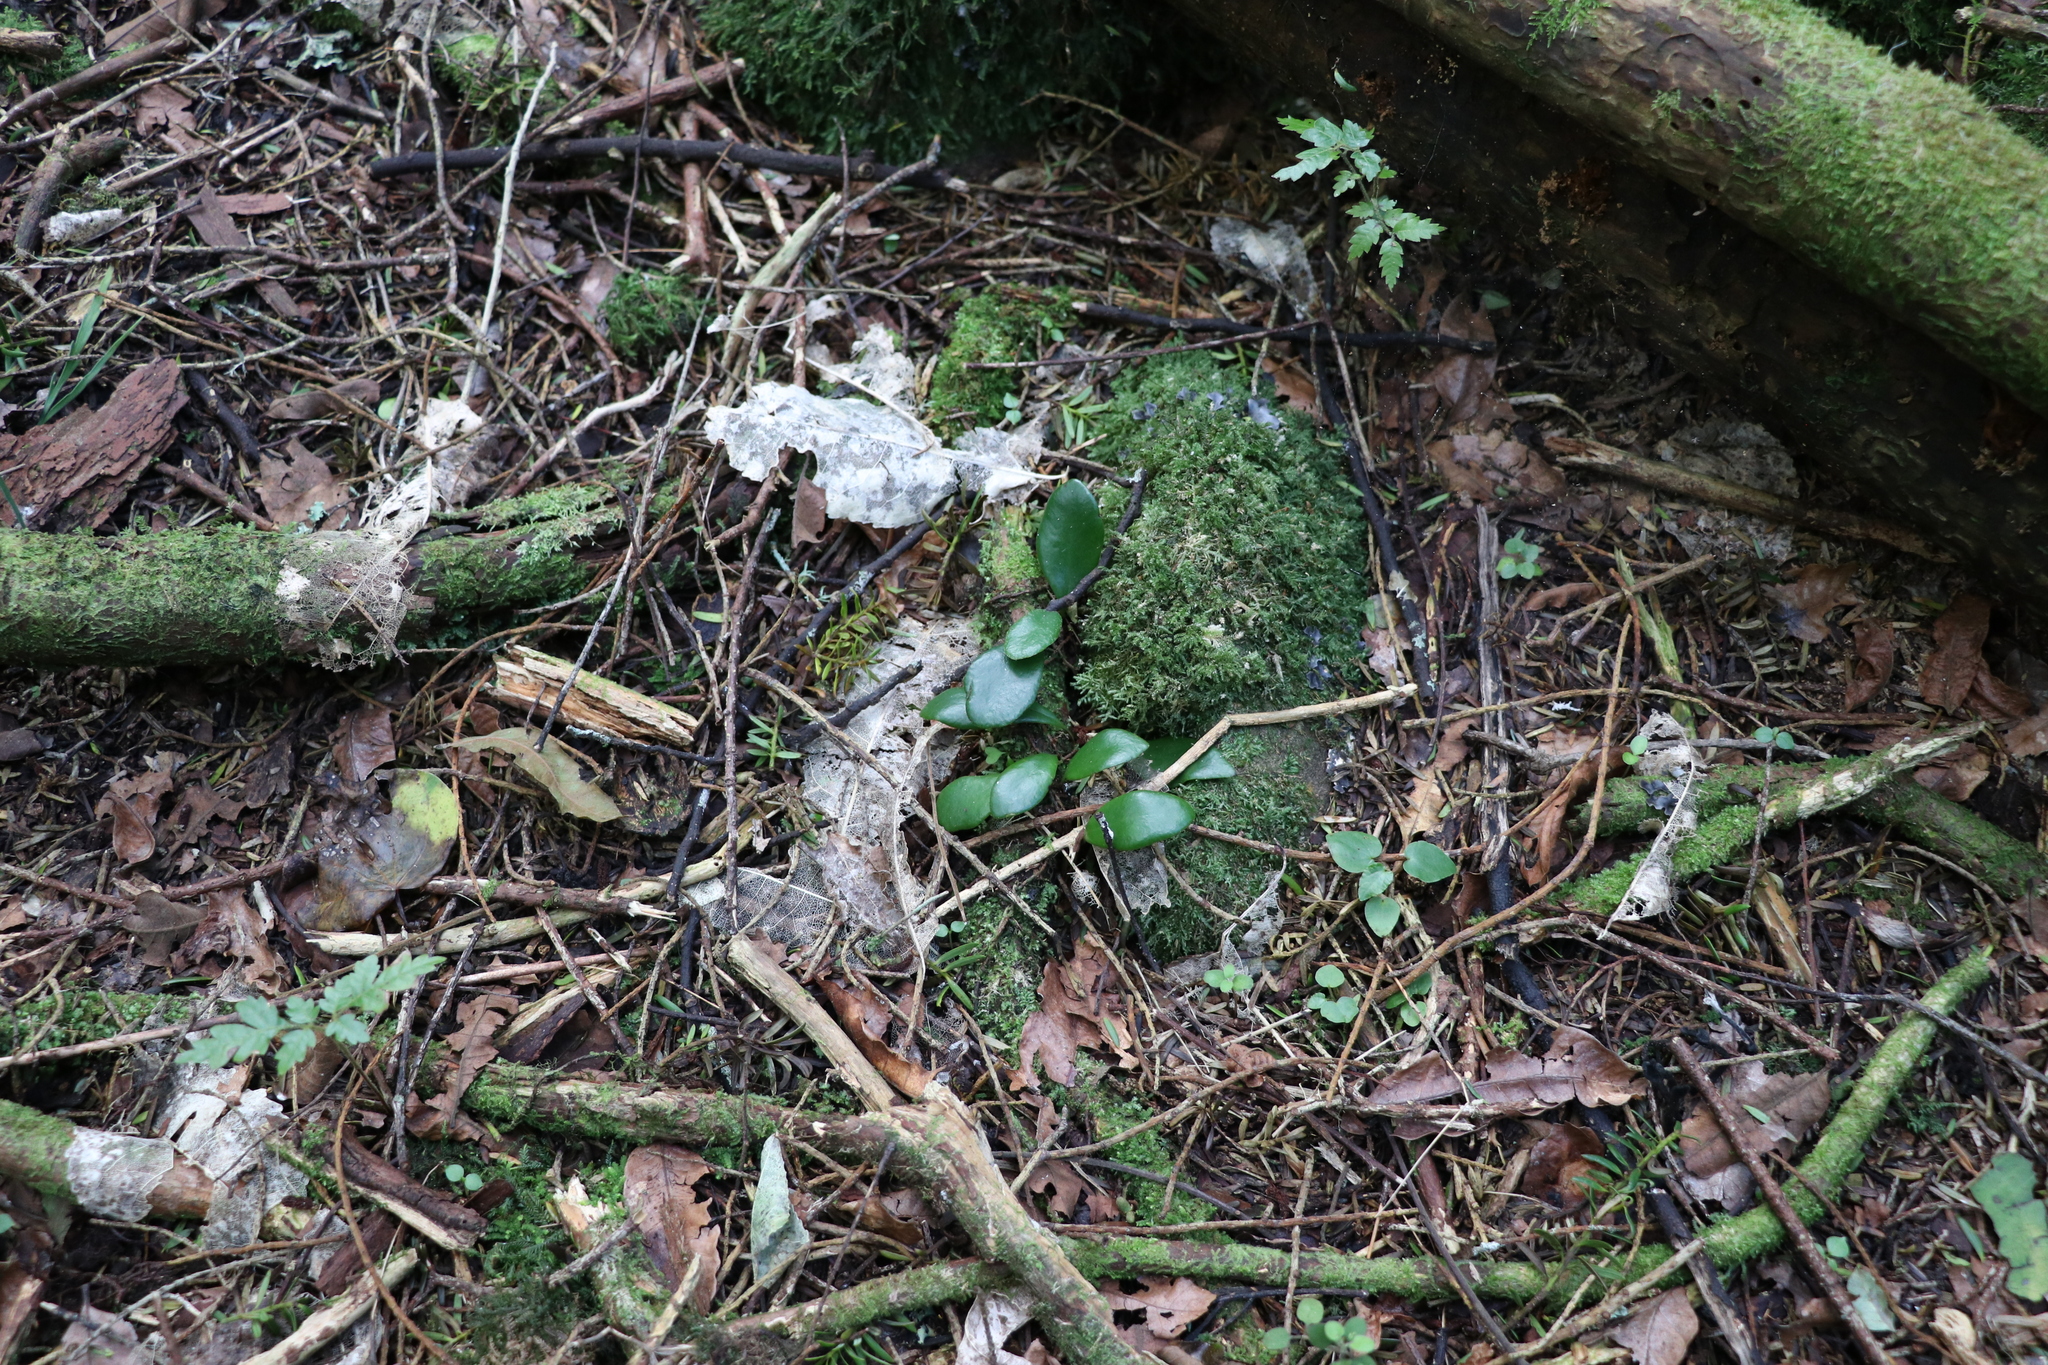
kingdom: Plantae
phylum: Tracheophyta
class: Polypodiopsida
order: Polypodiales
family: Polypodiaceae
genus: Pyrrosia
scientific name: Pyrrosia eleagnifolia
